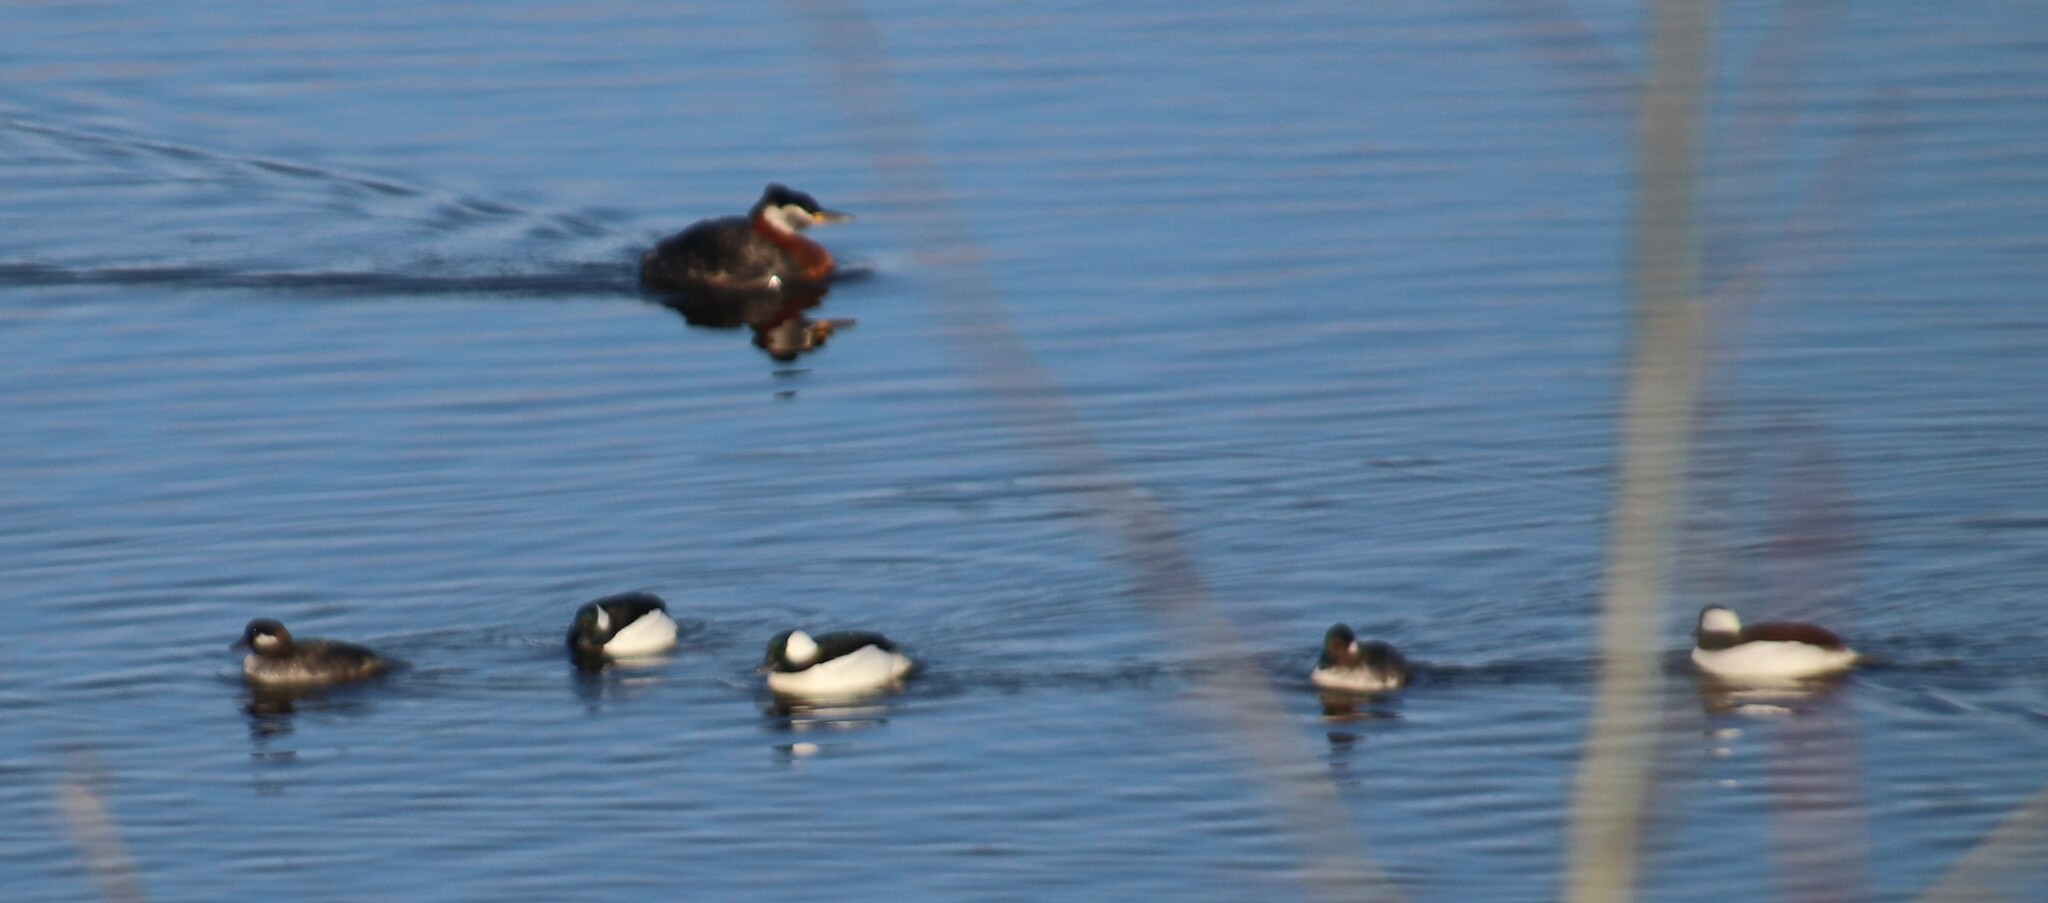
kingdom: Animalia
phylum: Chordata
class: Aves
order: Podicipediformes
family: Podicipedidae
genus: Podiceps
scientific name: Podiceps grisegena
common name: Red-necked grebe
